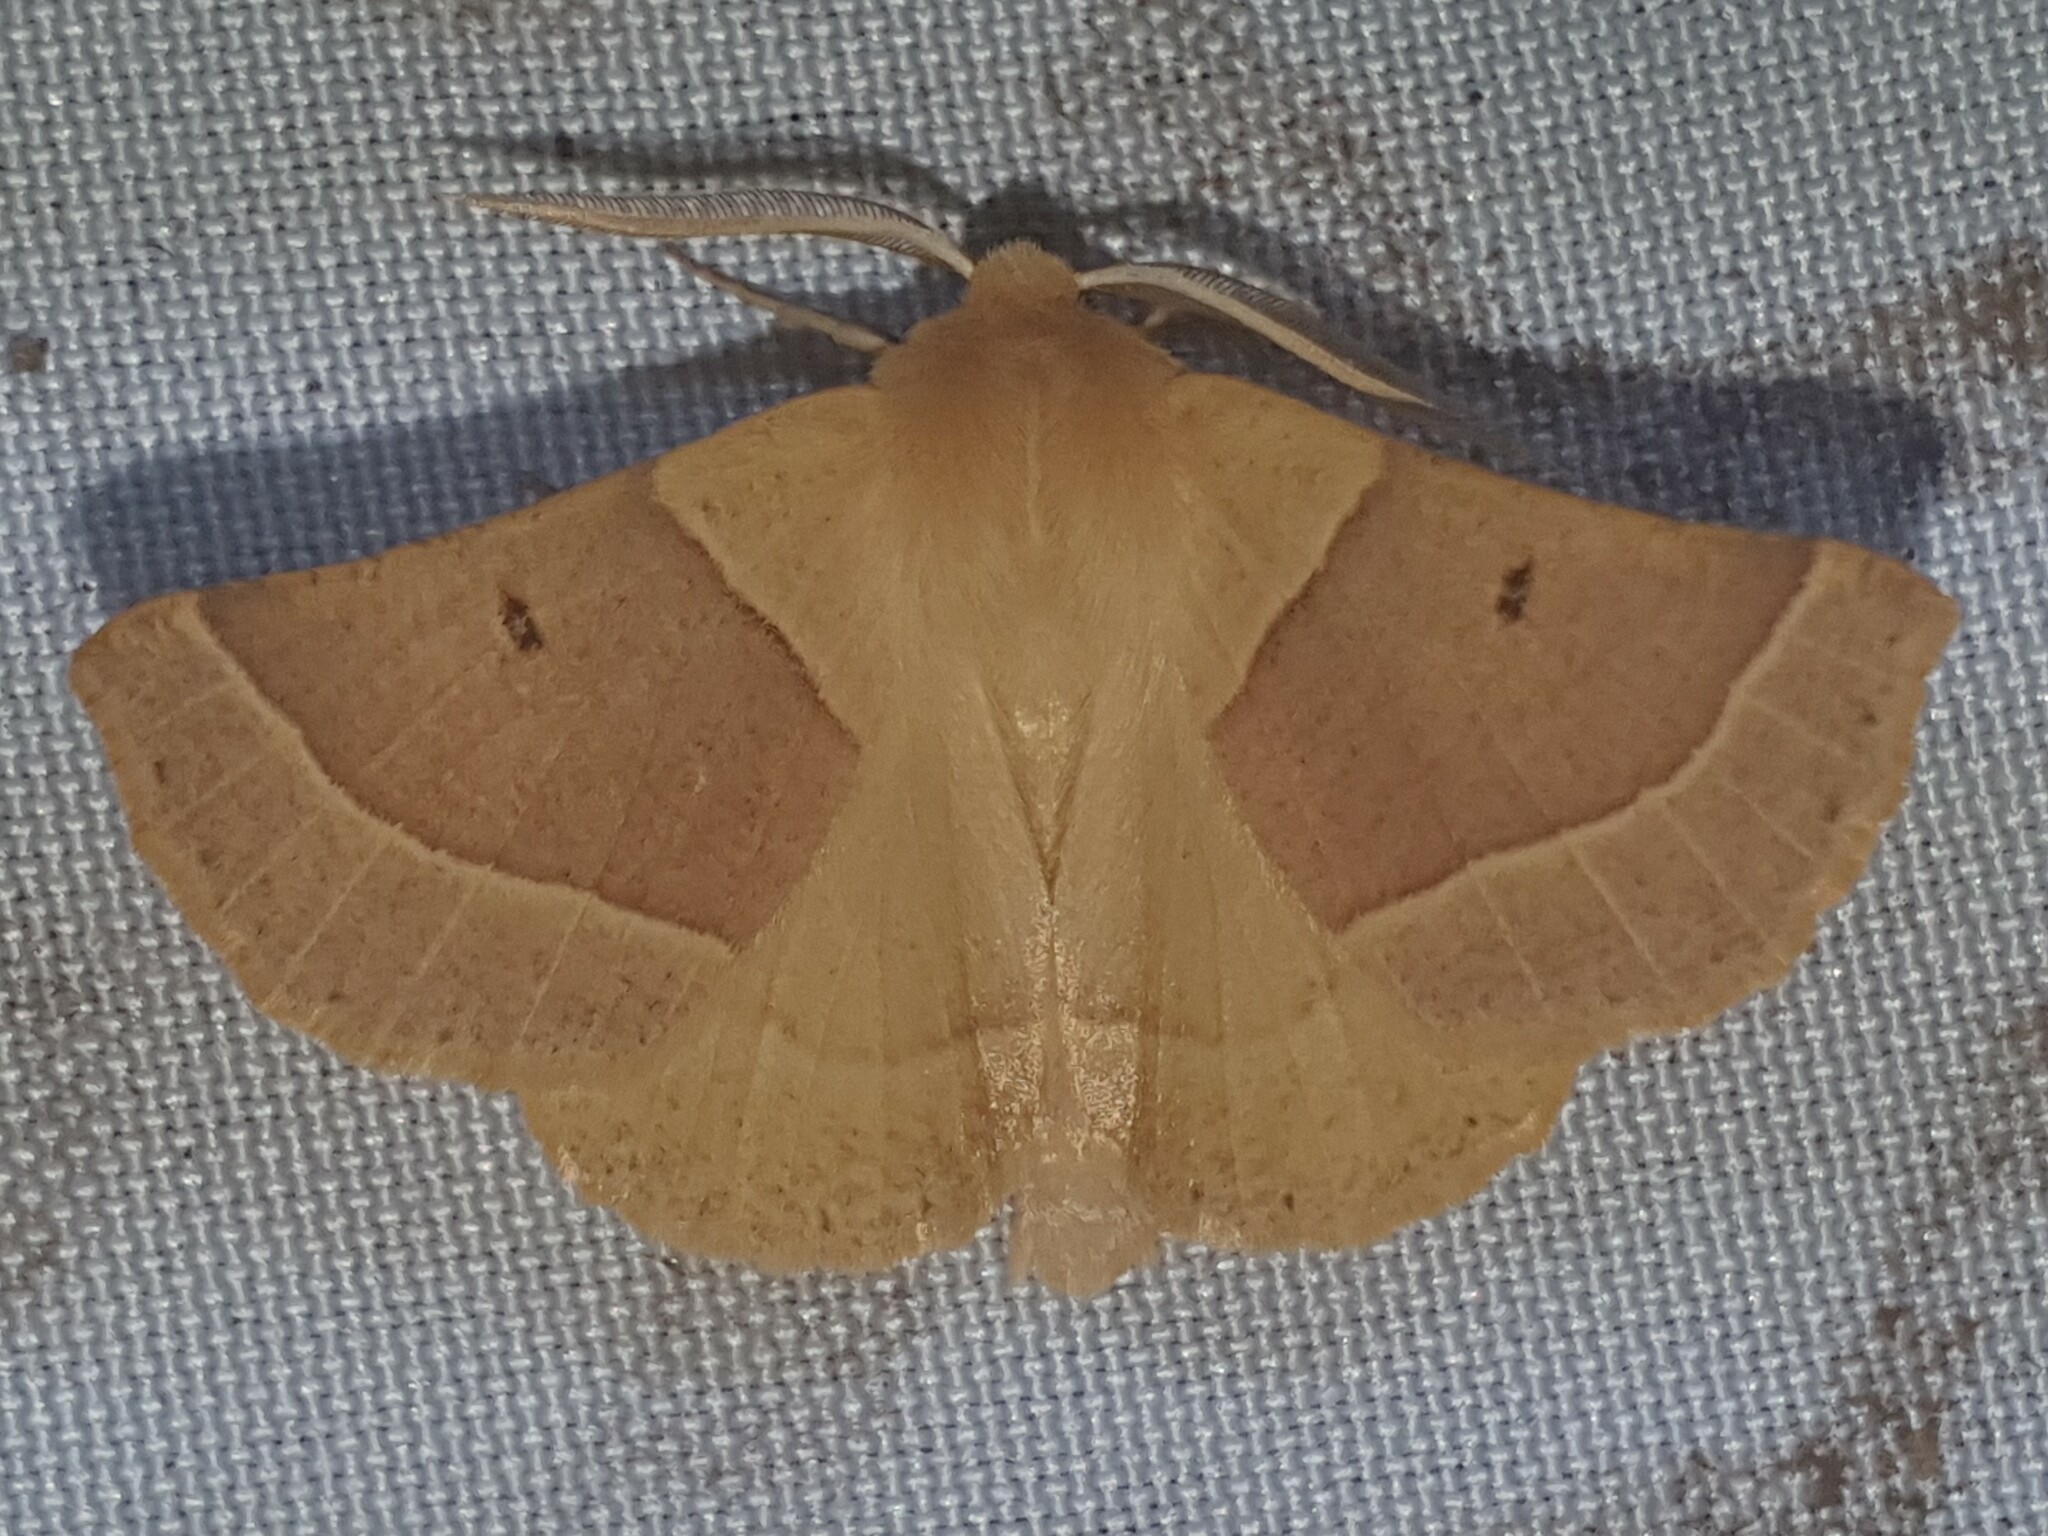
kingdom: Animalia
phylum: Arthropoda
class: Insecta
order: Lepidoptera
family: Geometridae
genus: Crocallis
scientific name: Crocallis elinguaria
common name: Scalloped oak
